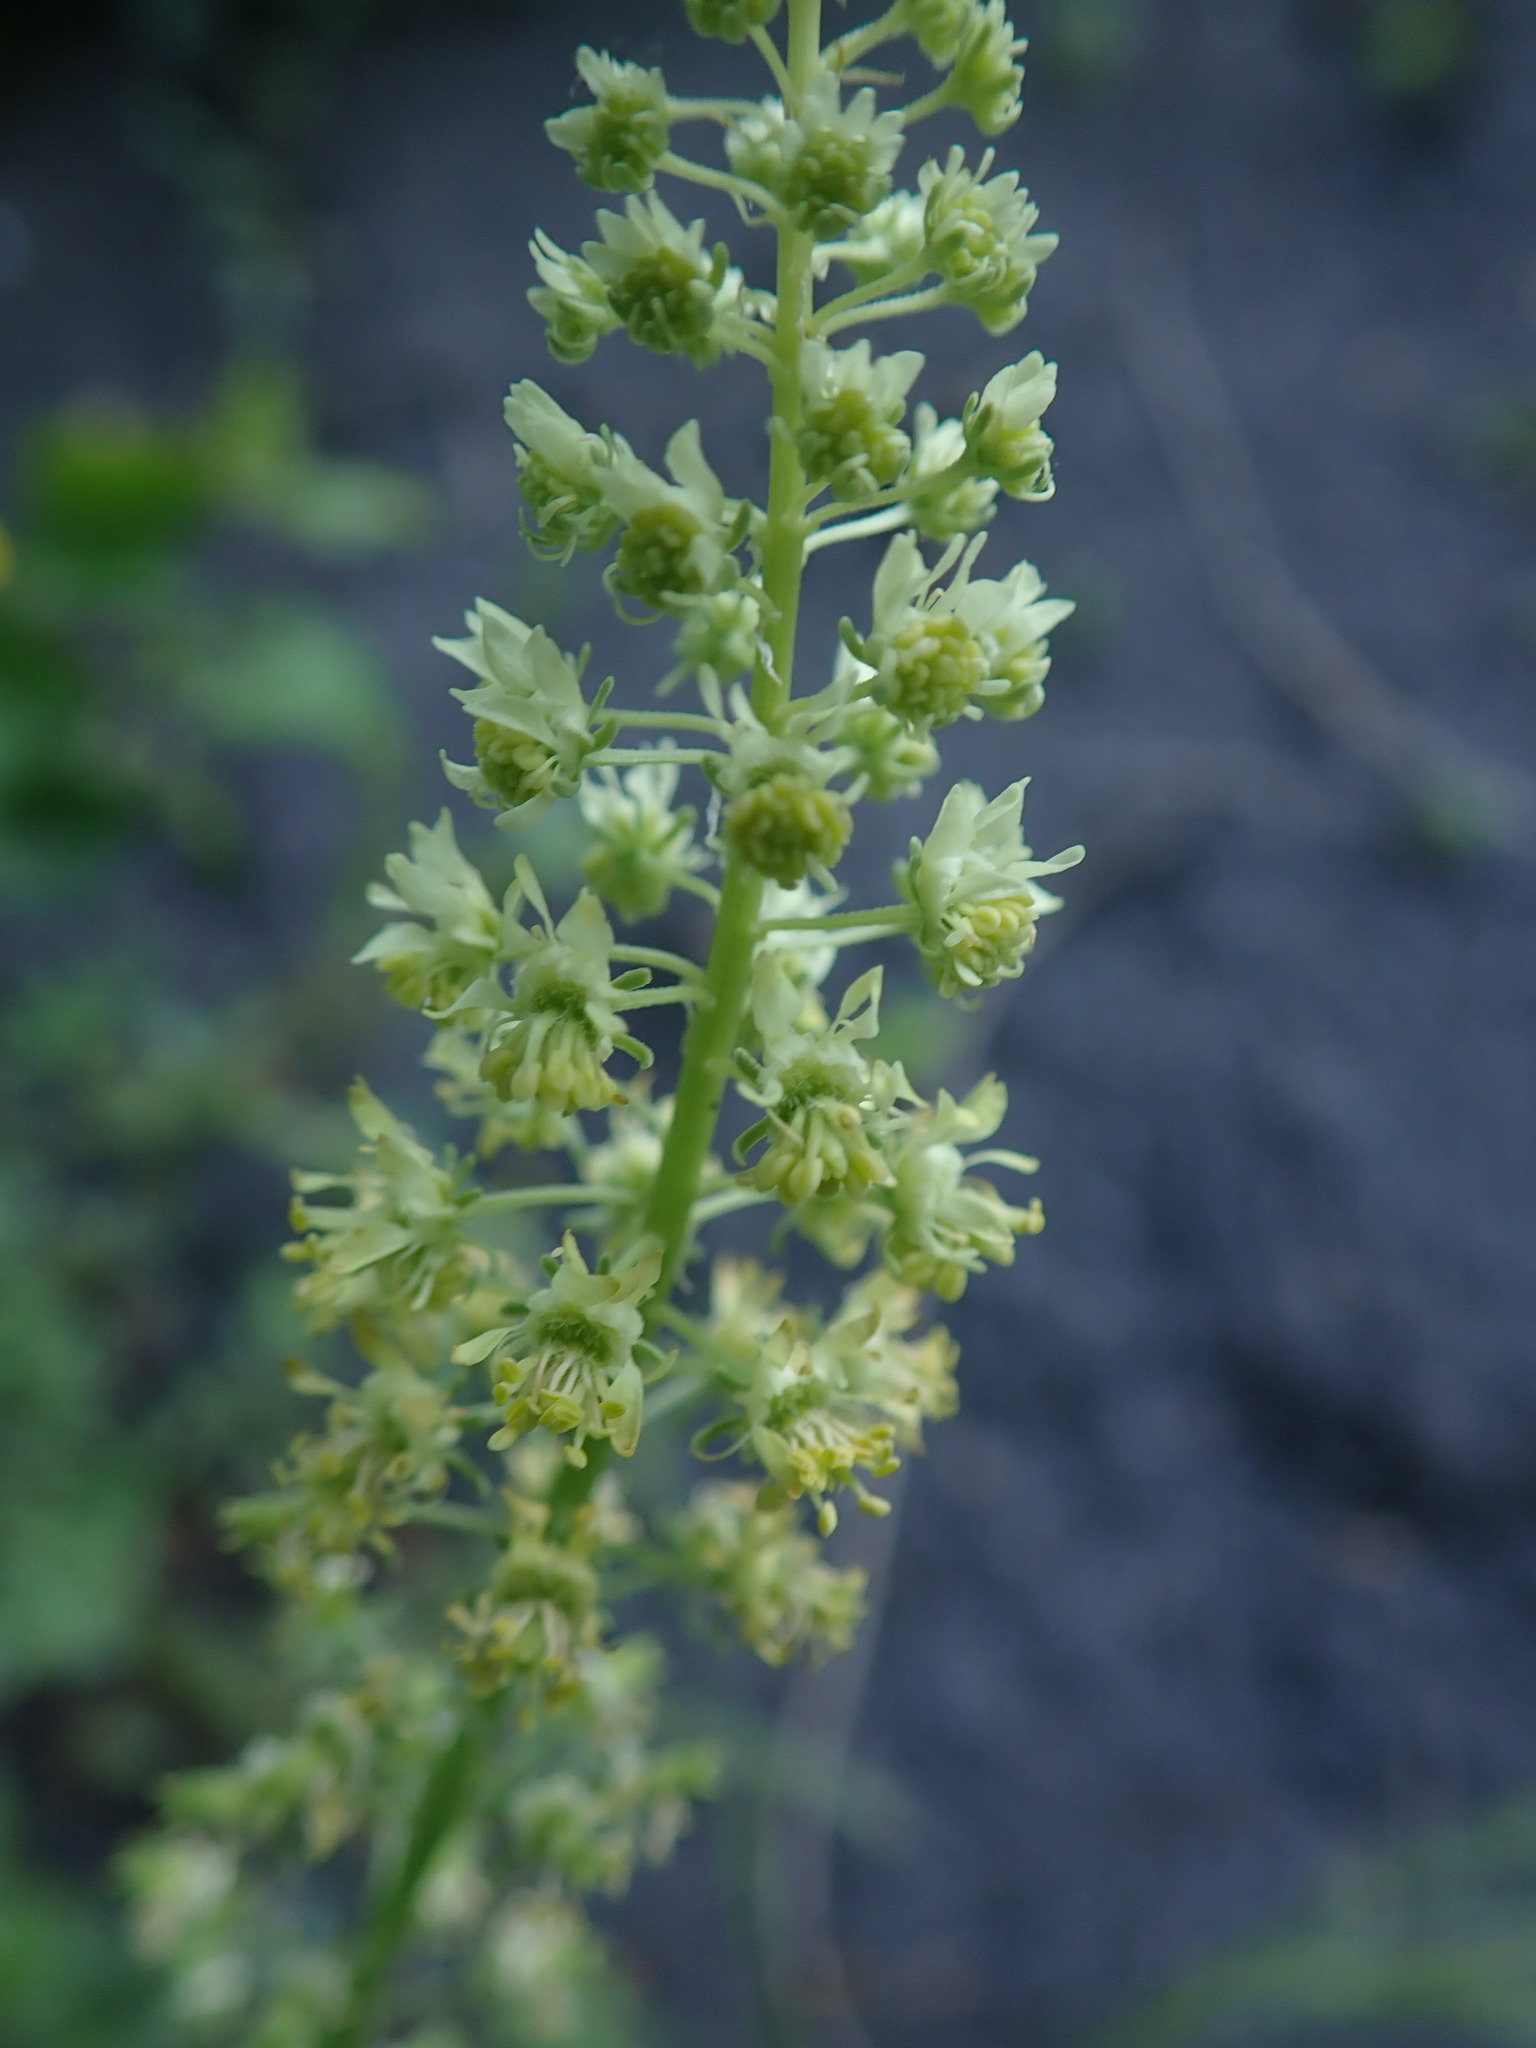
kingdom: Plantae
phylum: Tracheophyta
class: Magnoliopsida
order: Brassicales
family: Resedaceae
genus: Reseda
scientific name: Reseda lutea
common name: Wild mignonette
